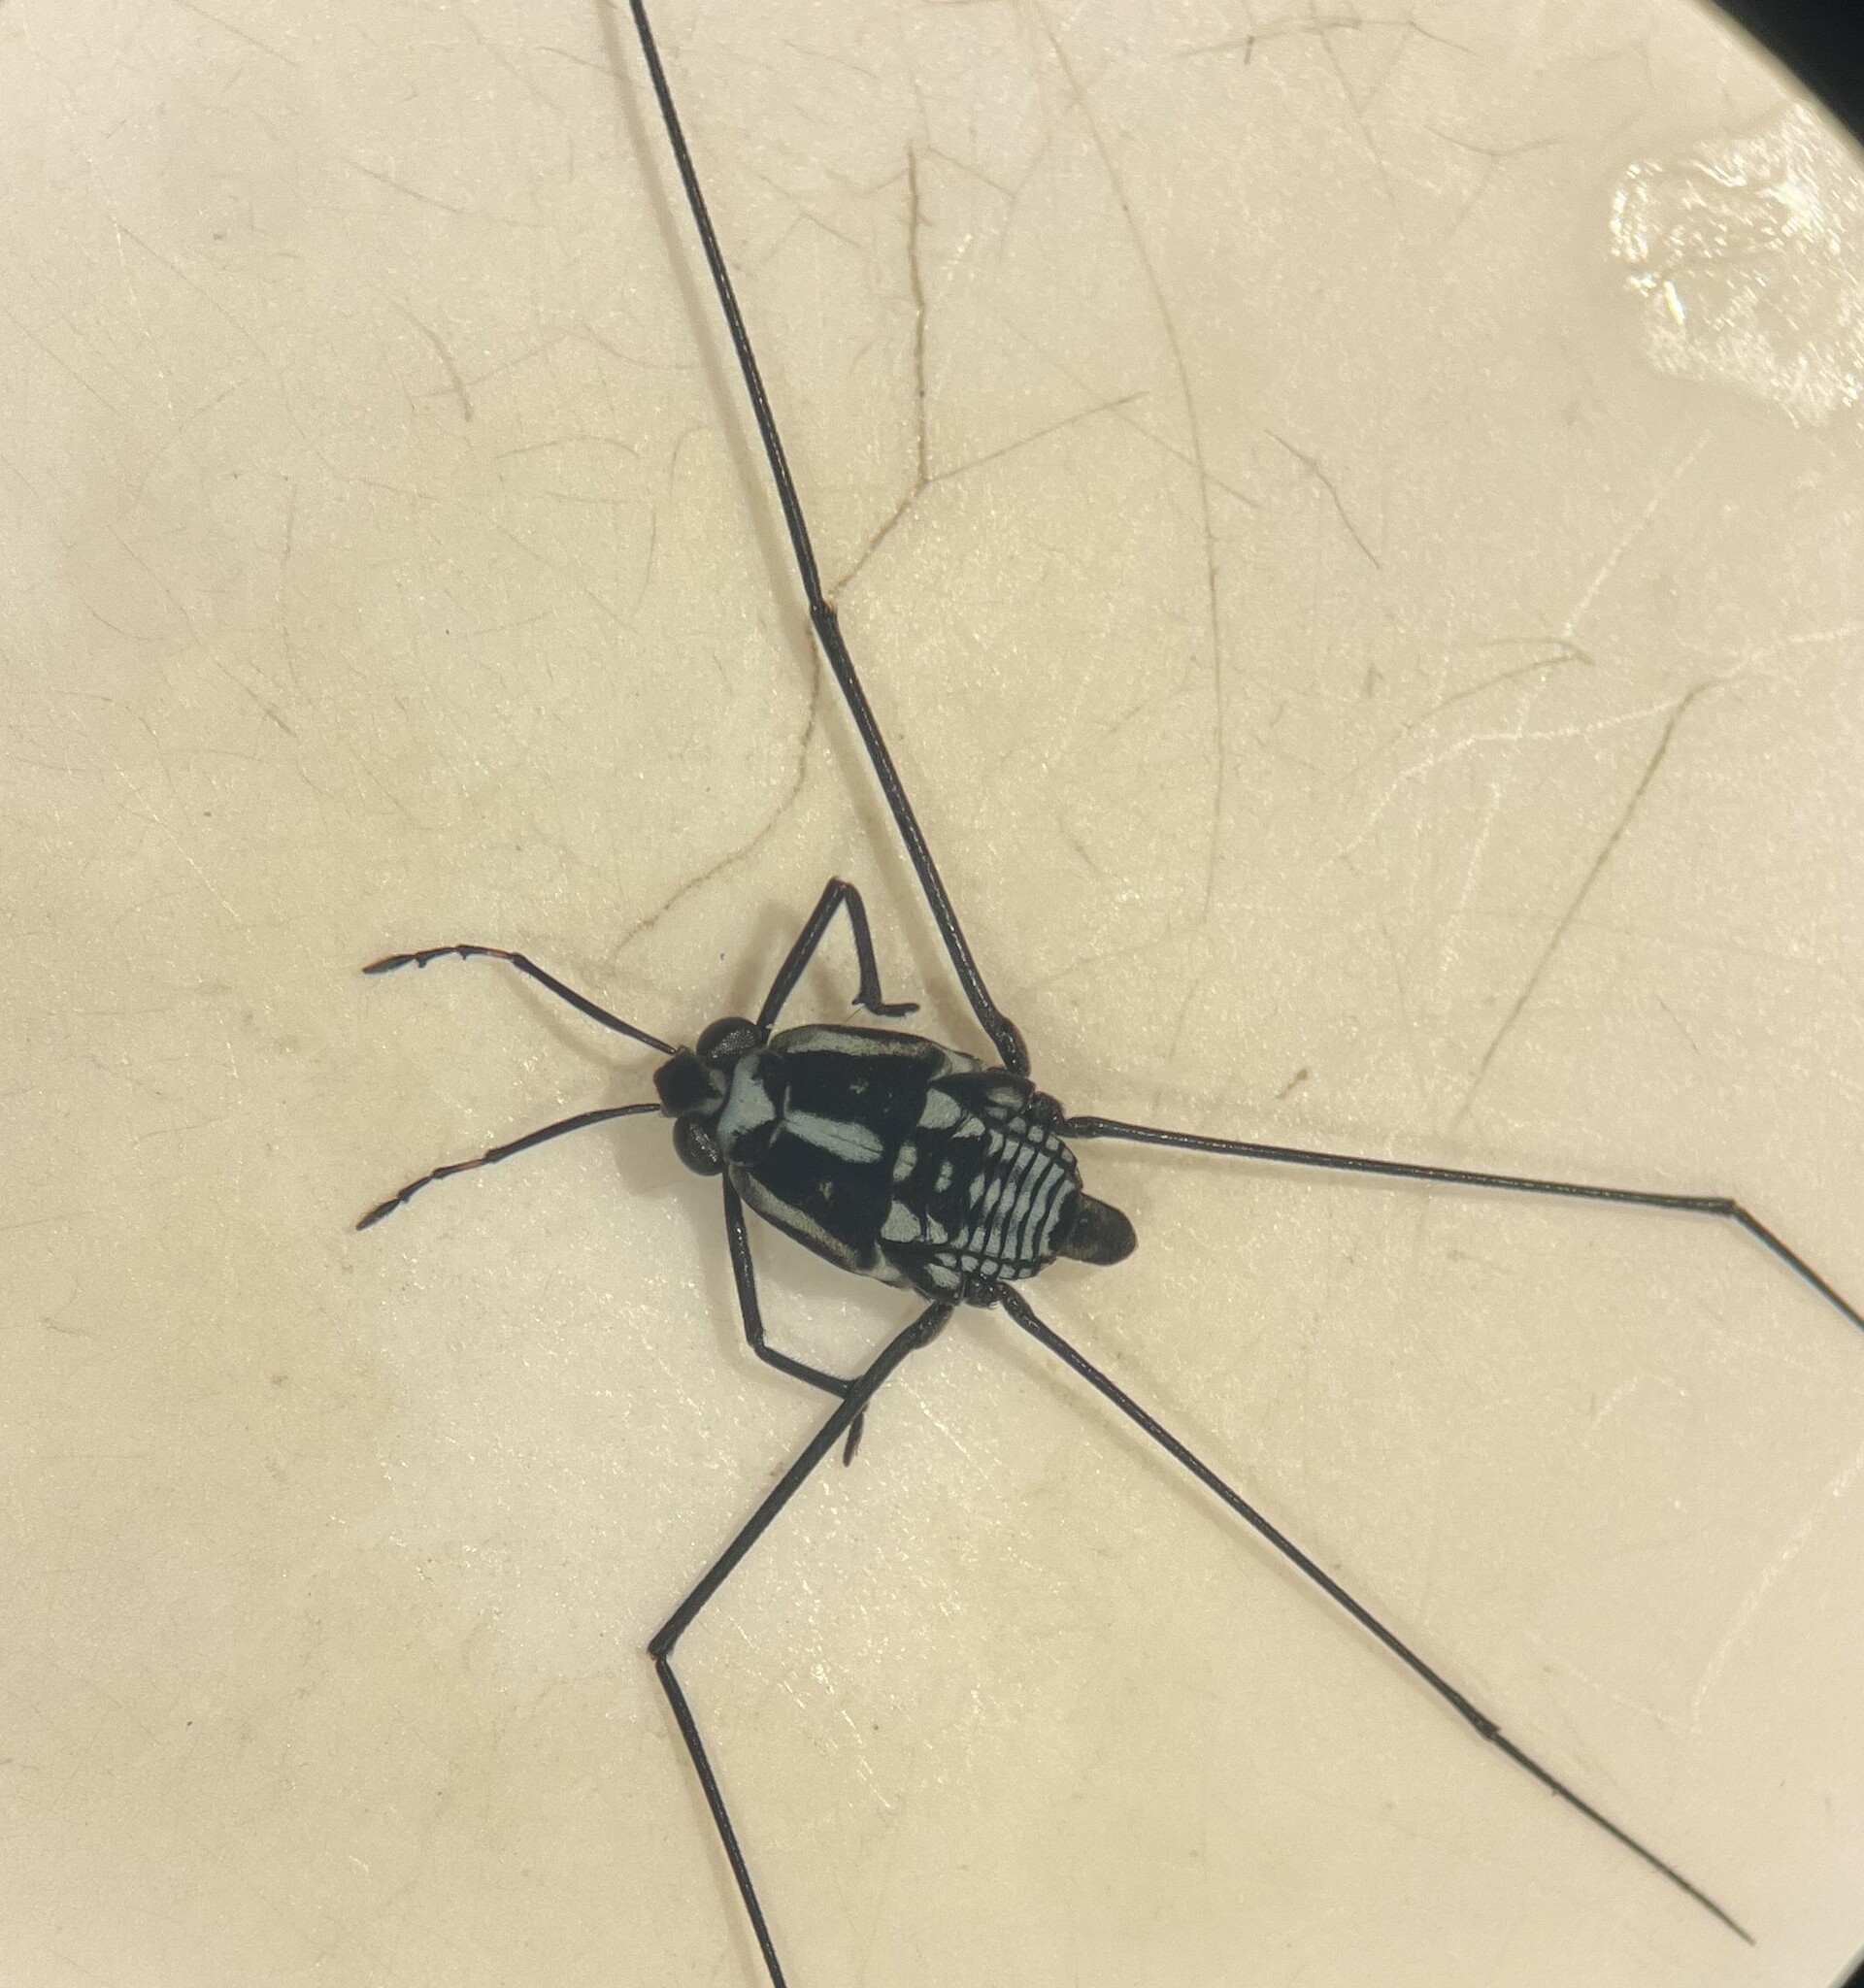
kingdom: Animalia
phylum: Arthropoda
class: Insecta
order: Hemiptera
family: Gerridae
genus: Metrobates
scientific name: Metrobates trux
